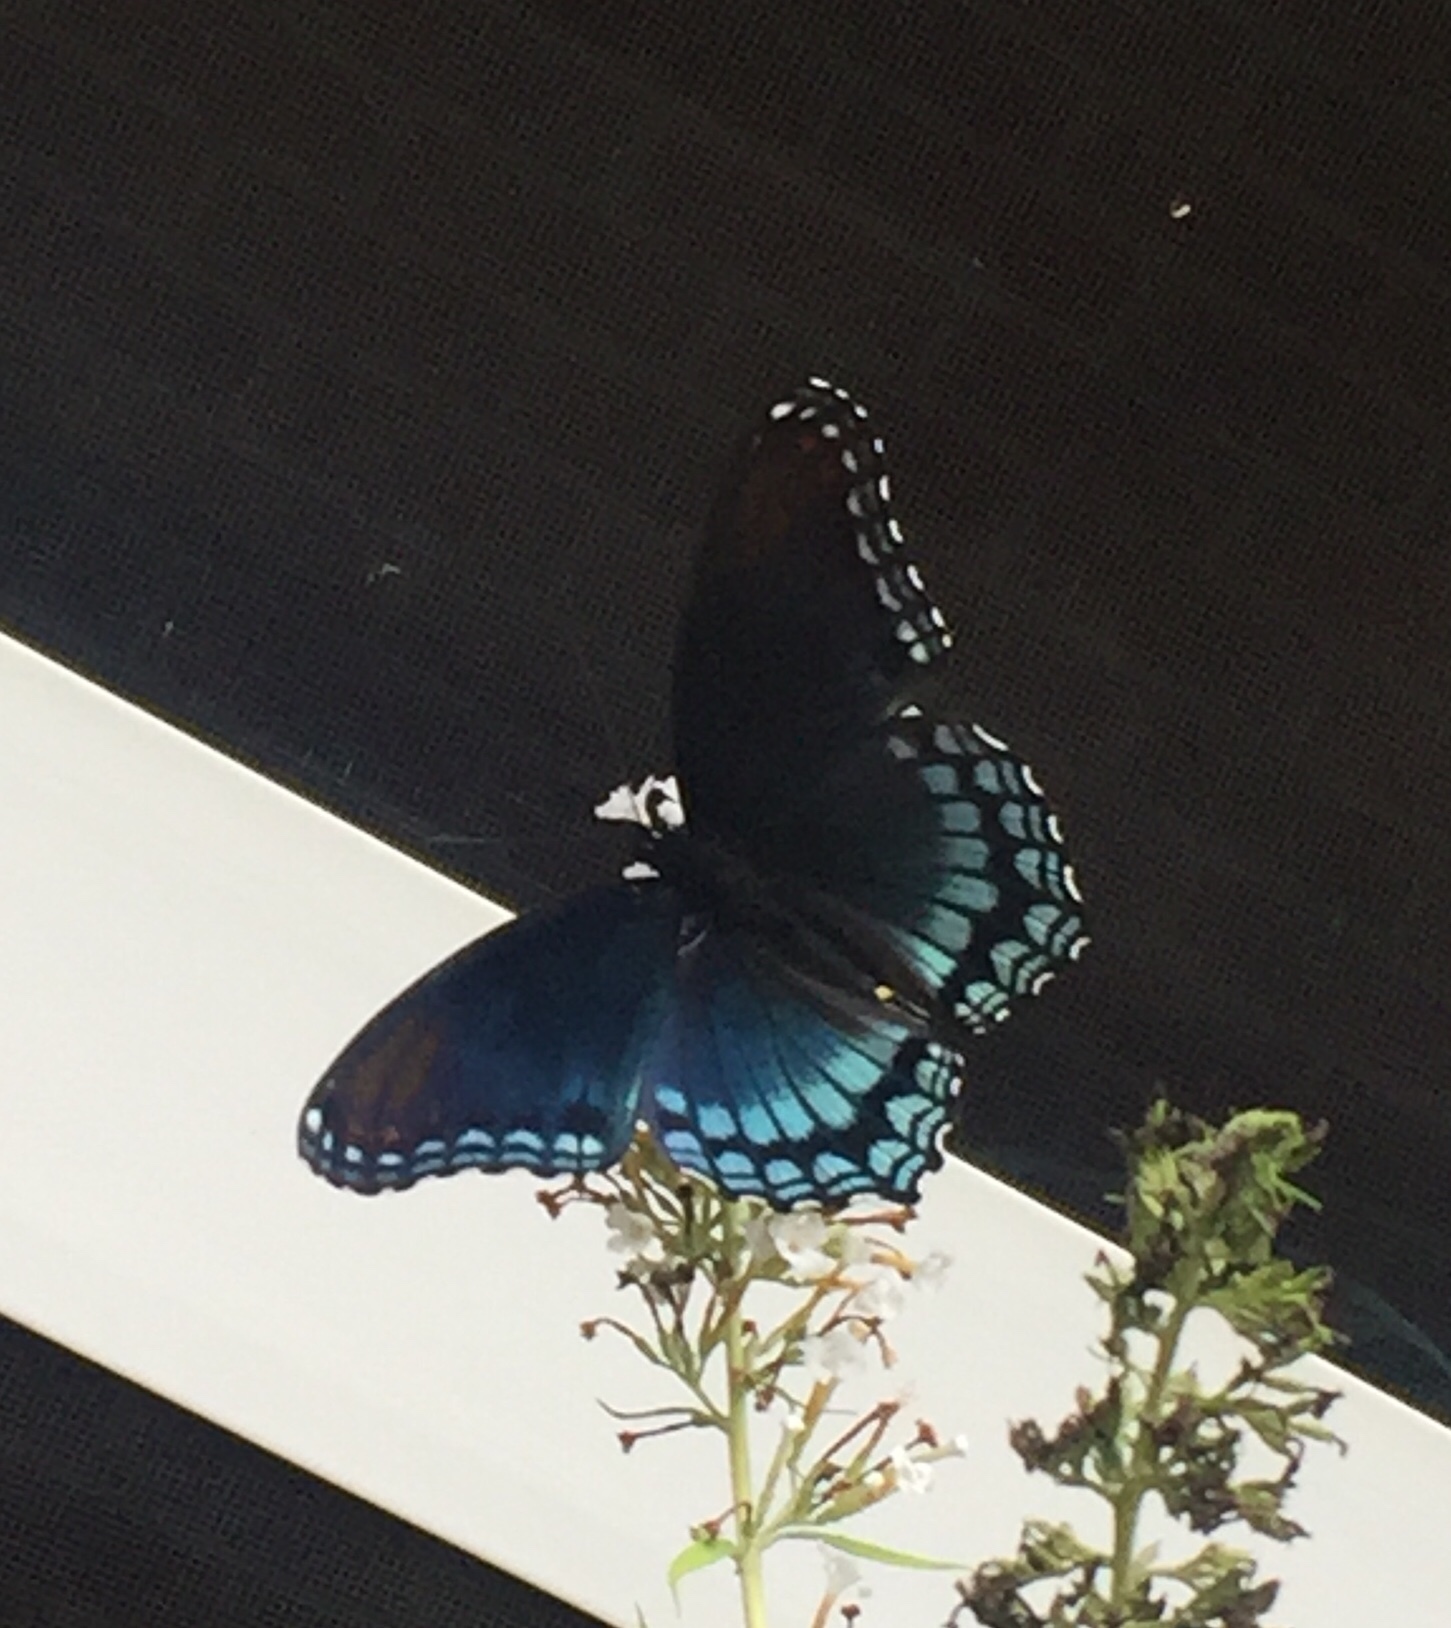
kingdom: Animalia
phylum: Arthropoda
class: Insecta
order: Lepidoptera
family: Nymphalidae
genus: Limenitis
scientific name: Limenitis astyanax
